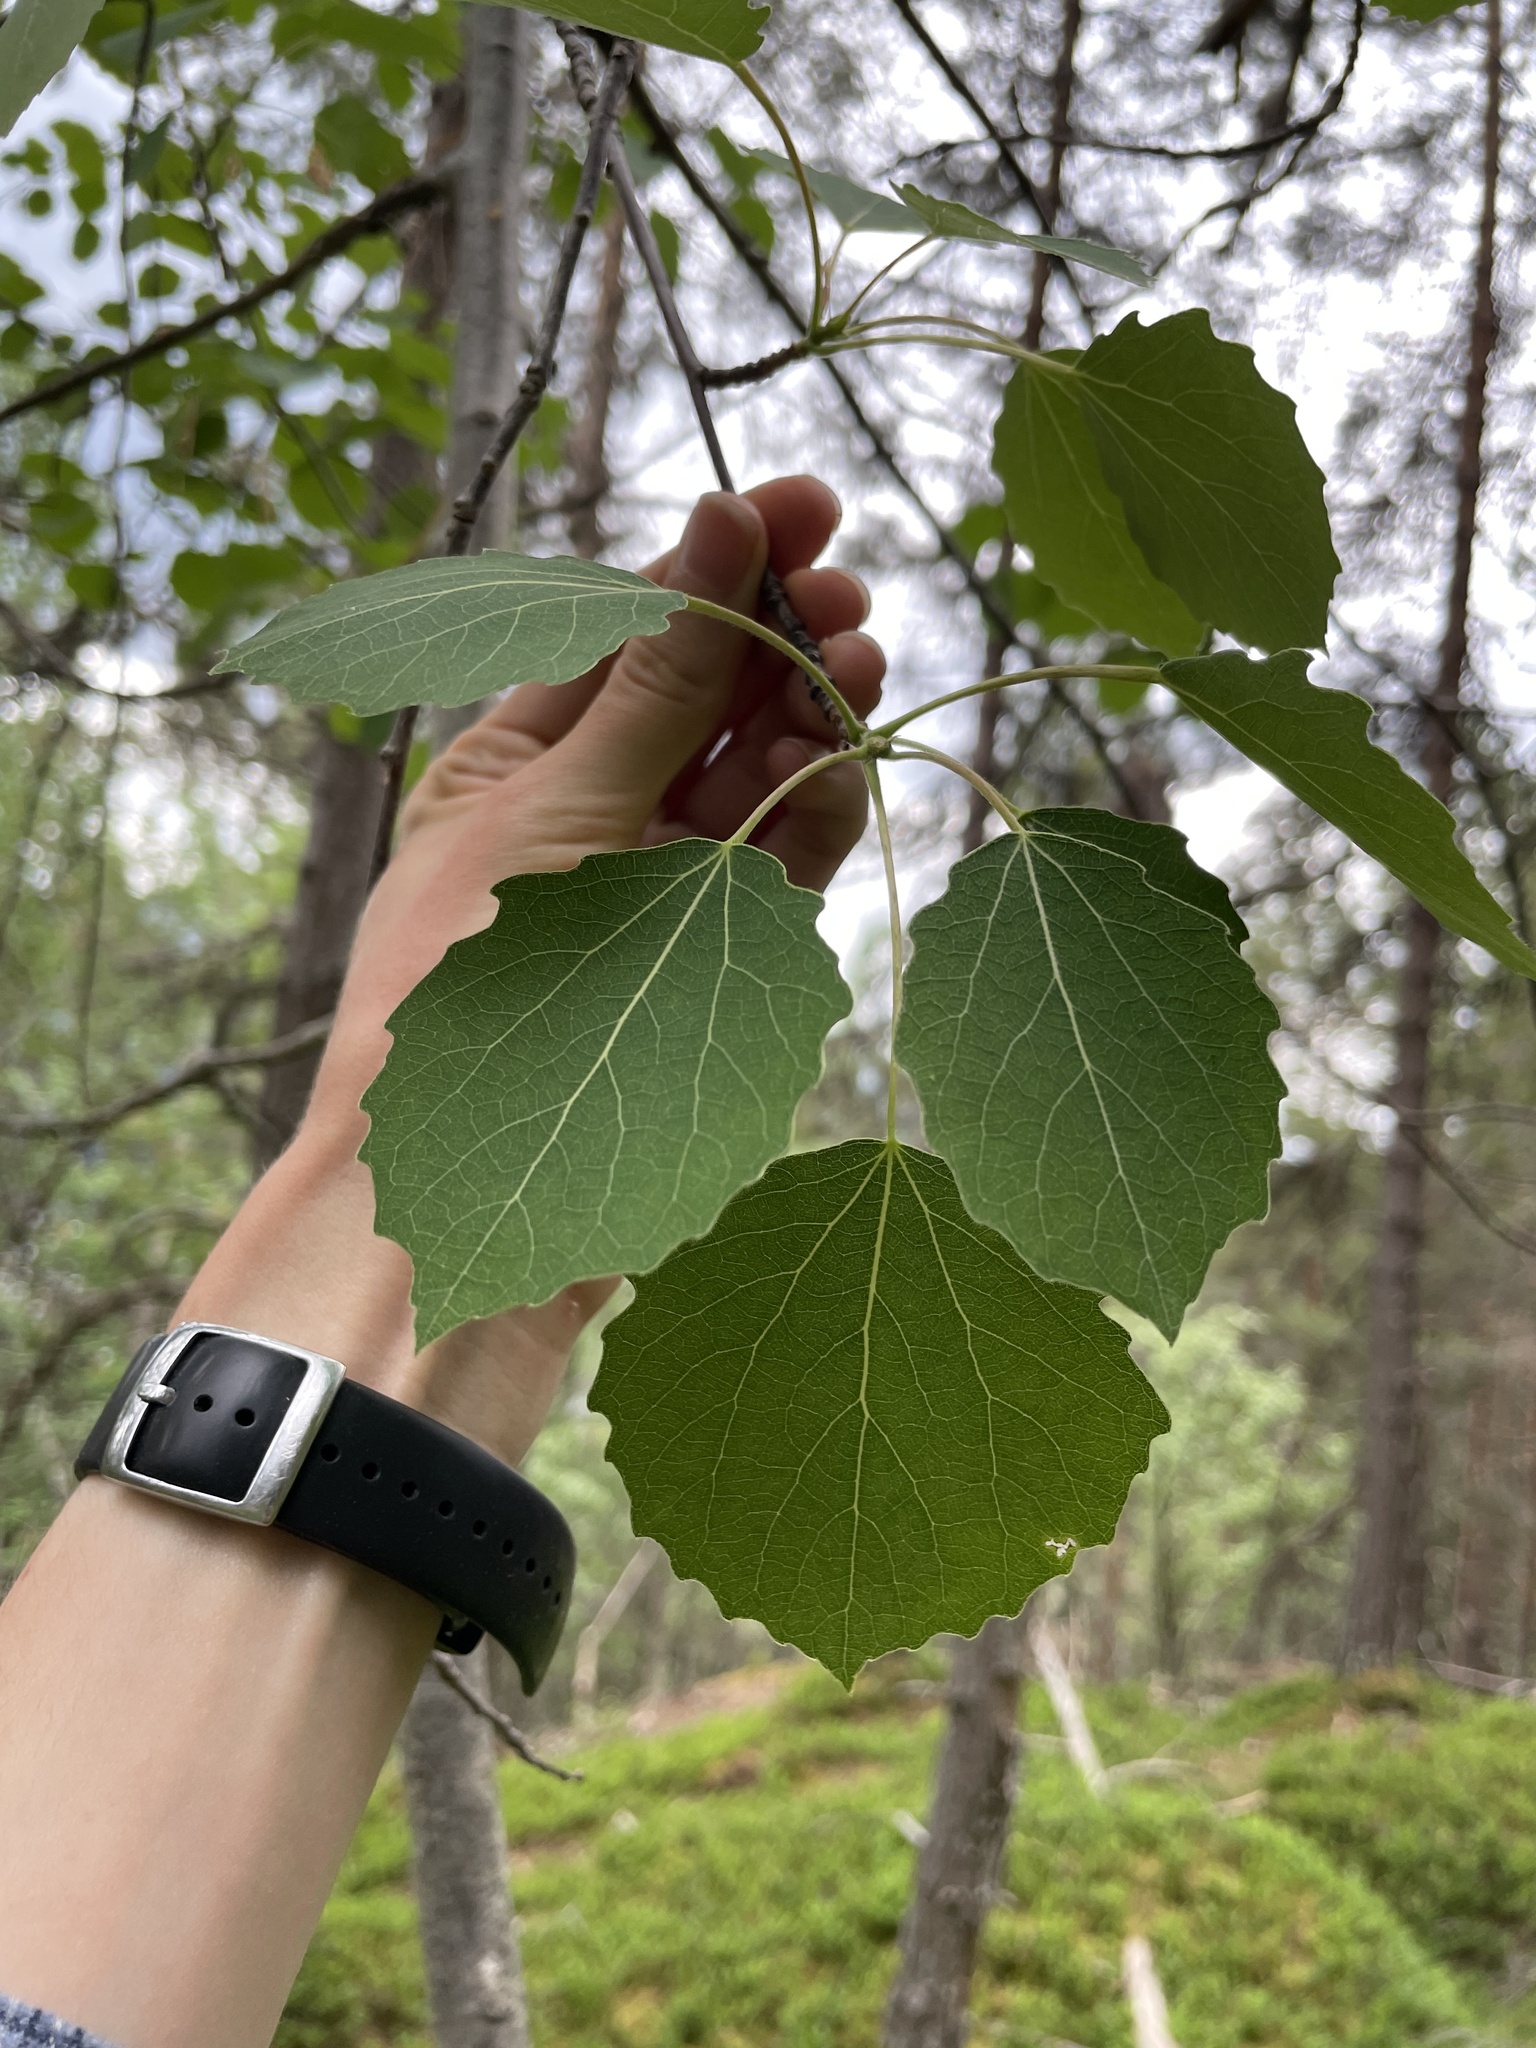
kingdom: Plantae
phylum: Tracheophyta
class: Magnoliopsida
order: Malpighiales
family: Salicaceae
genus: Populus
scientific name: Populus tremula
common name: European aspen
